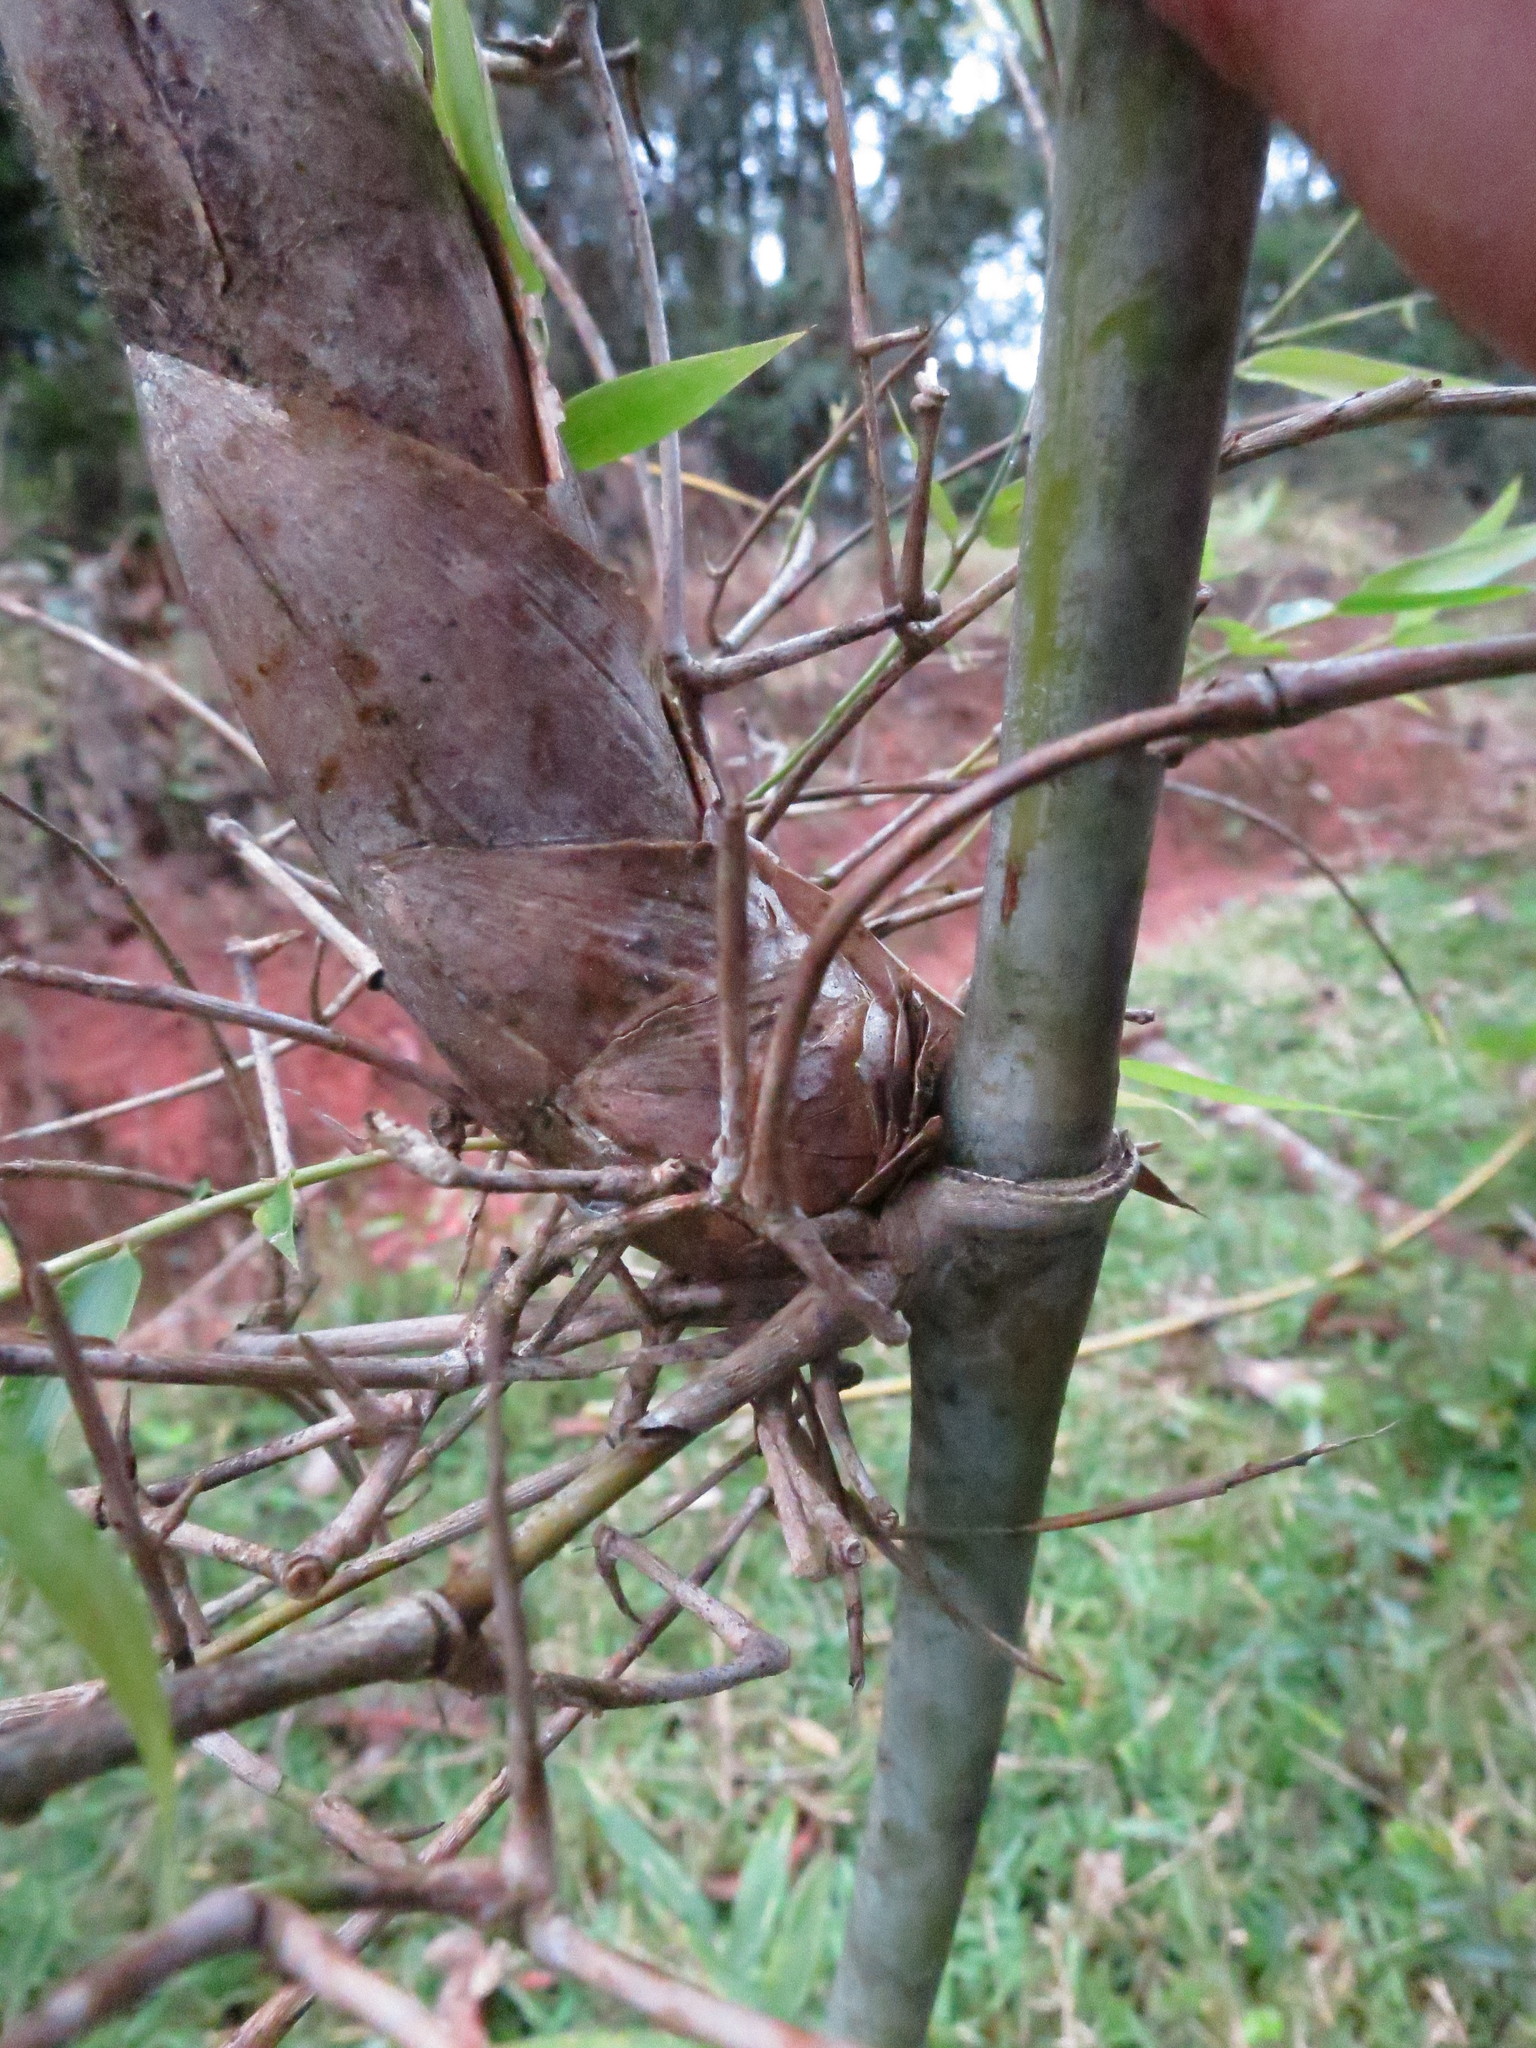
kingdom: Plantae
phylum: Tracheophyta
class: Liliopsida
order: Poales
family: Poaceae
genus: Hickelia
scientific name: Hickelia madagascariensis
